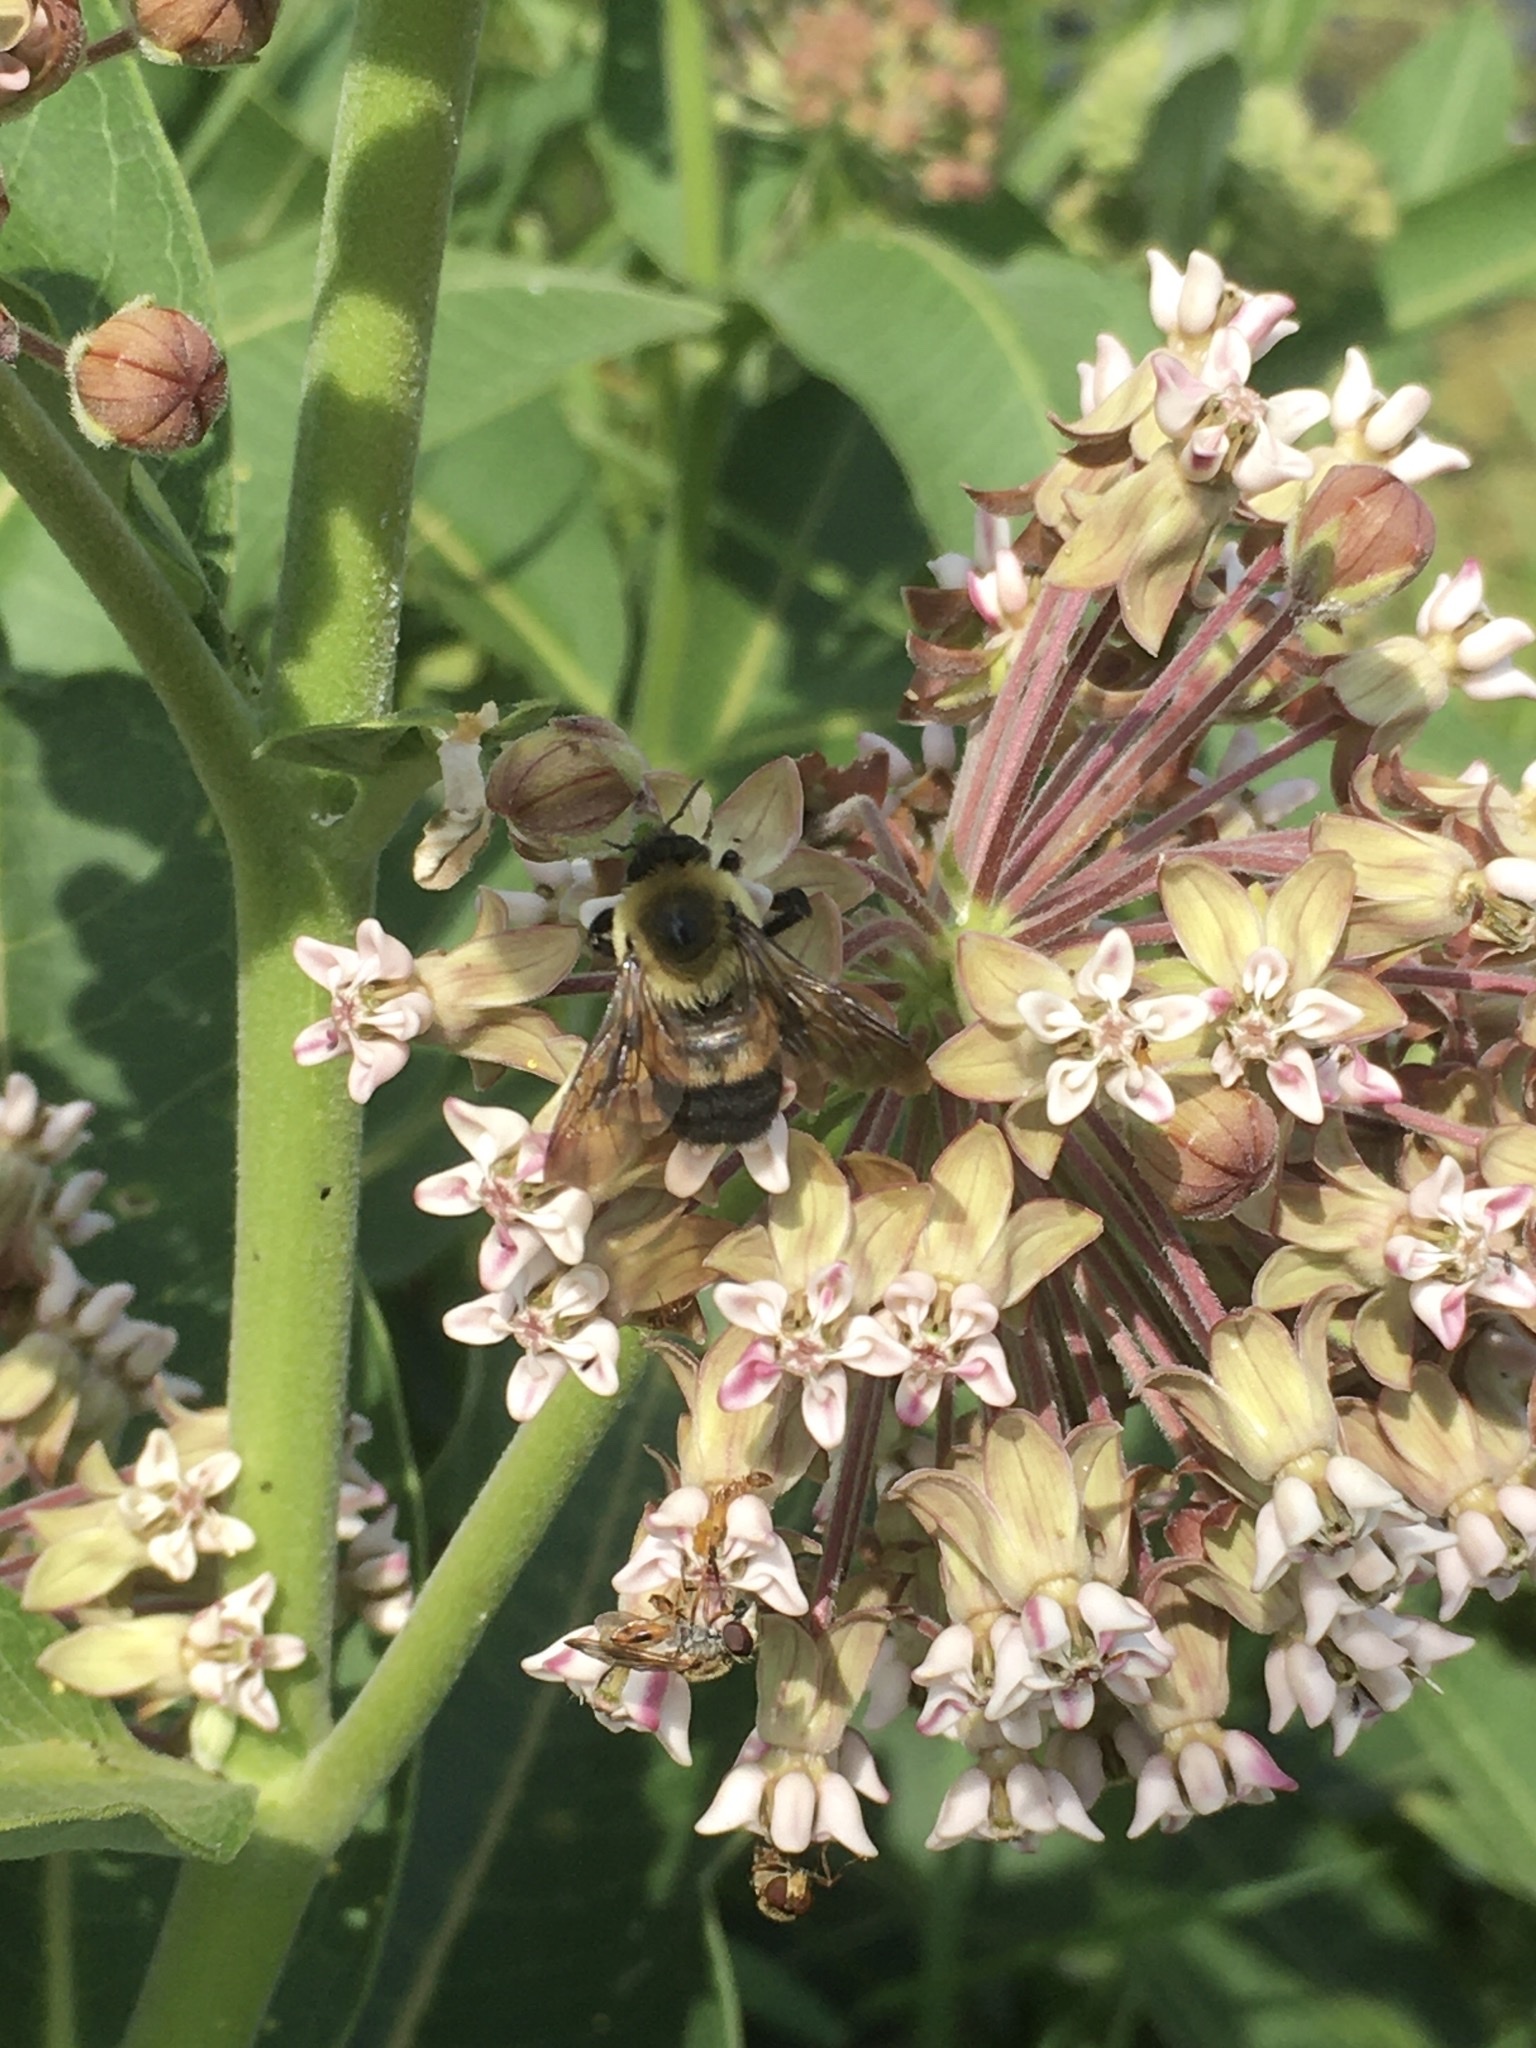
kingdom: Animalia
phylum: Arthropoda
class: Insecta
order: Hymenoptera
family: Apidae
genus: Bombus
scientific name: Bombus griseocollis
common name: Brown-belted bumble bee
